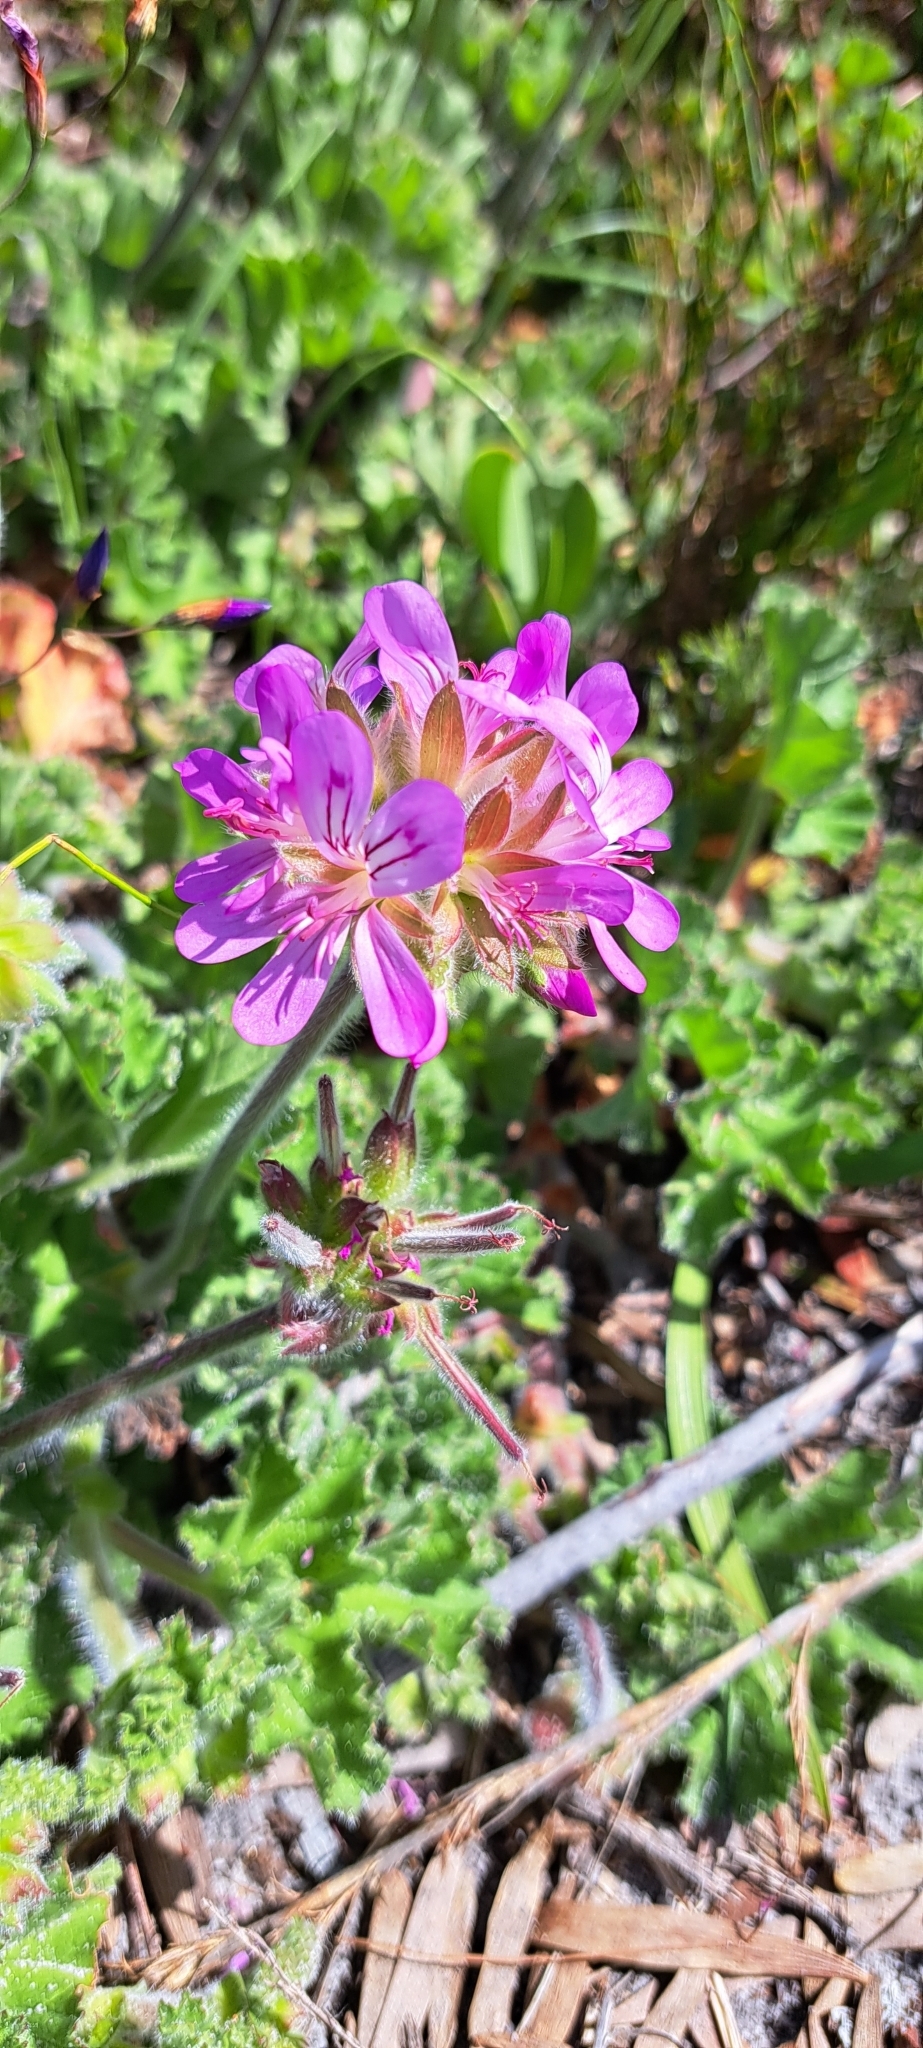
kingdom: Plantae
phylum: Tracheophyta
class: Magnoliopsida
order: Geraniales
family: Geraniaceae
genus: Pelargonium
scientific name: Pelargonium capitatum
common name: Rose scented geranium
